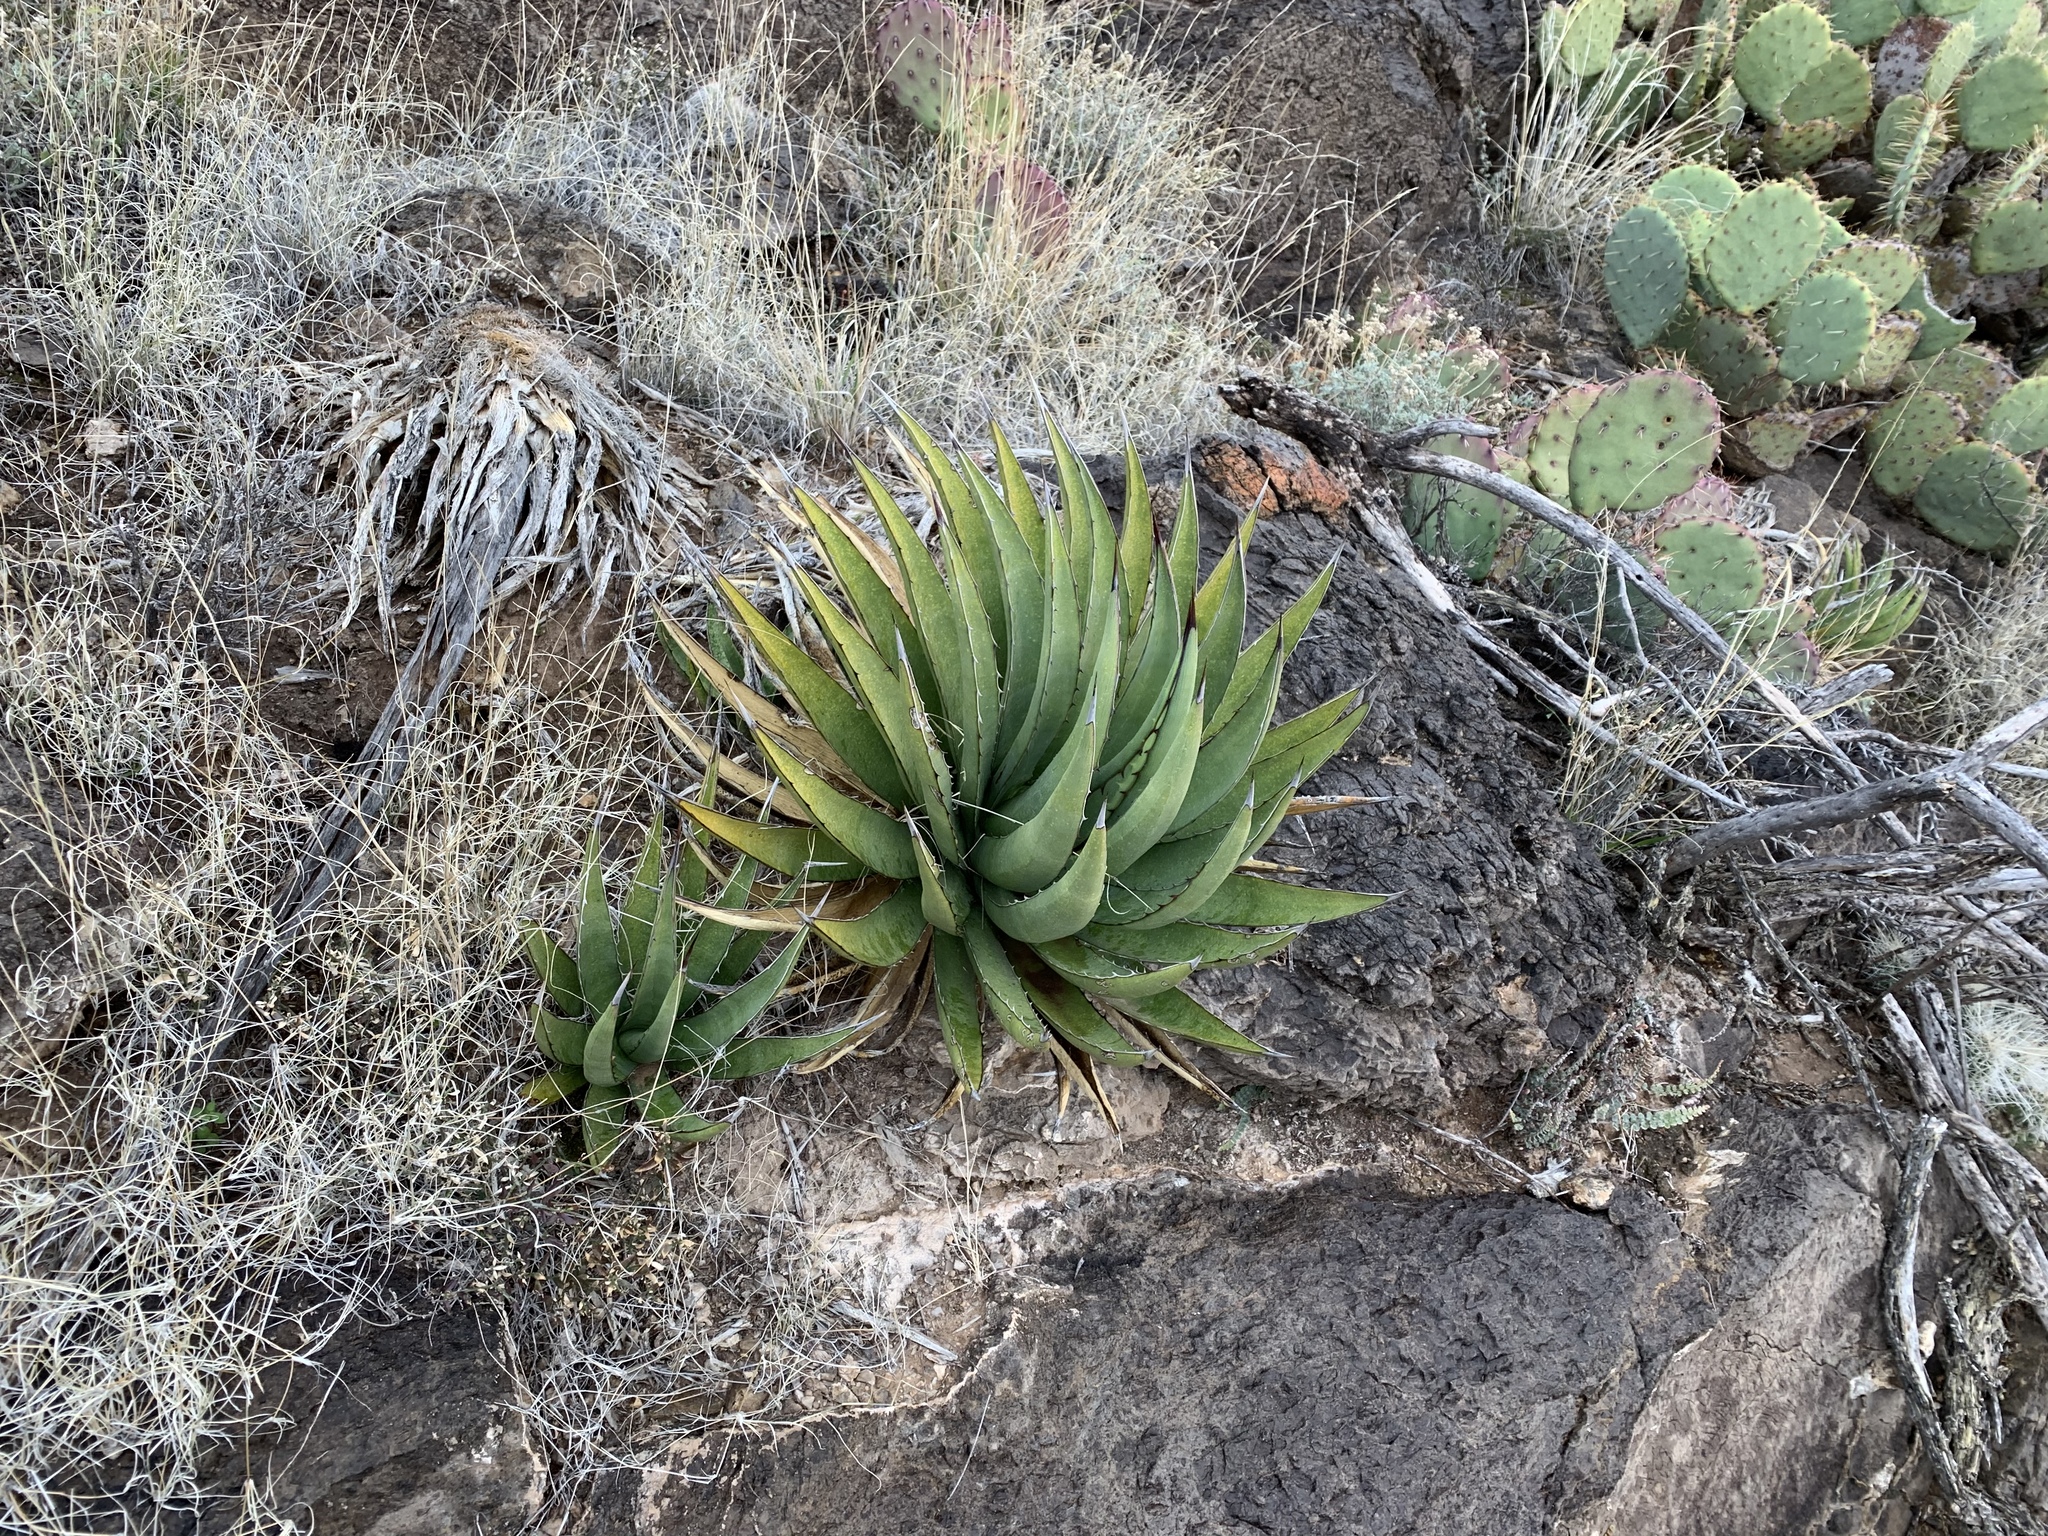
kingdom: Plantae
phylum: Tracheophyta
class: Liliopsida
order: Asparagales
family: Asparagaceae
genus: Agave
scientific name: Agave lechuguilla
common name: Lecheguilla agave
